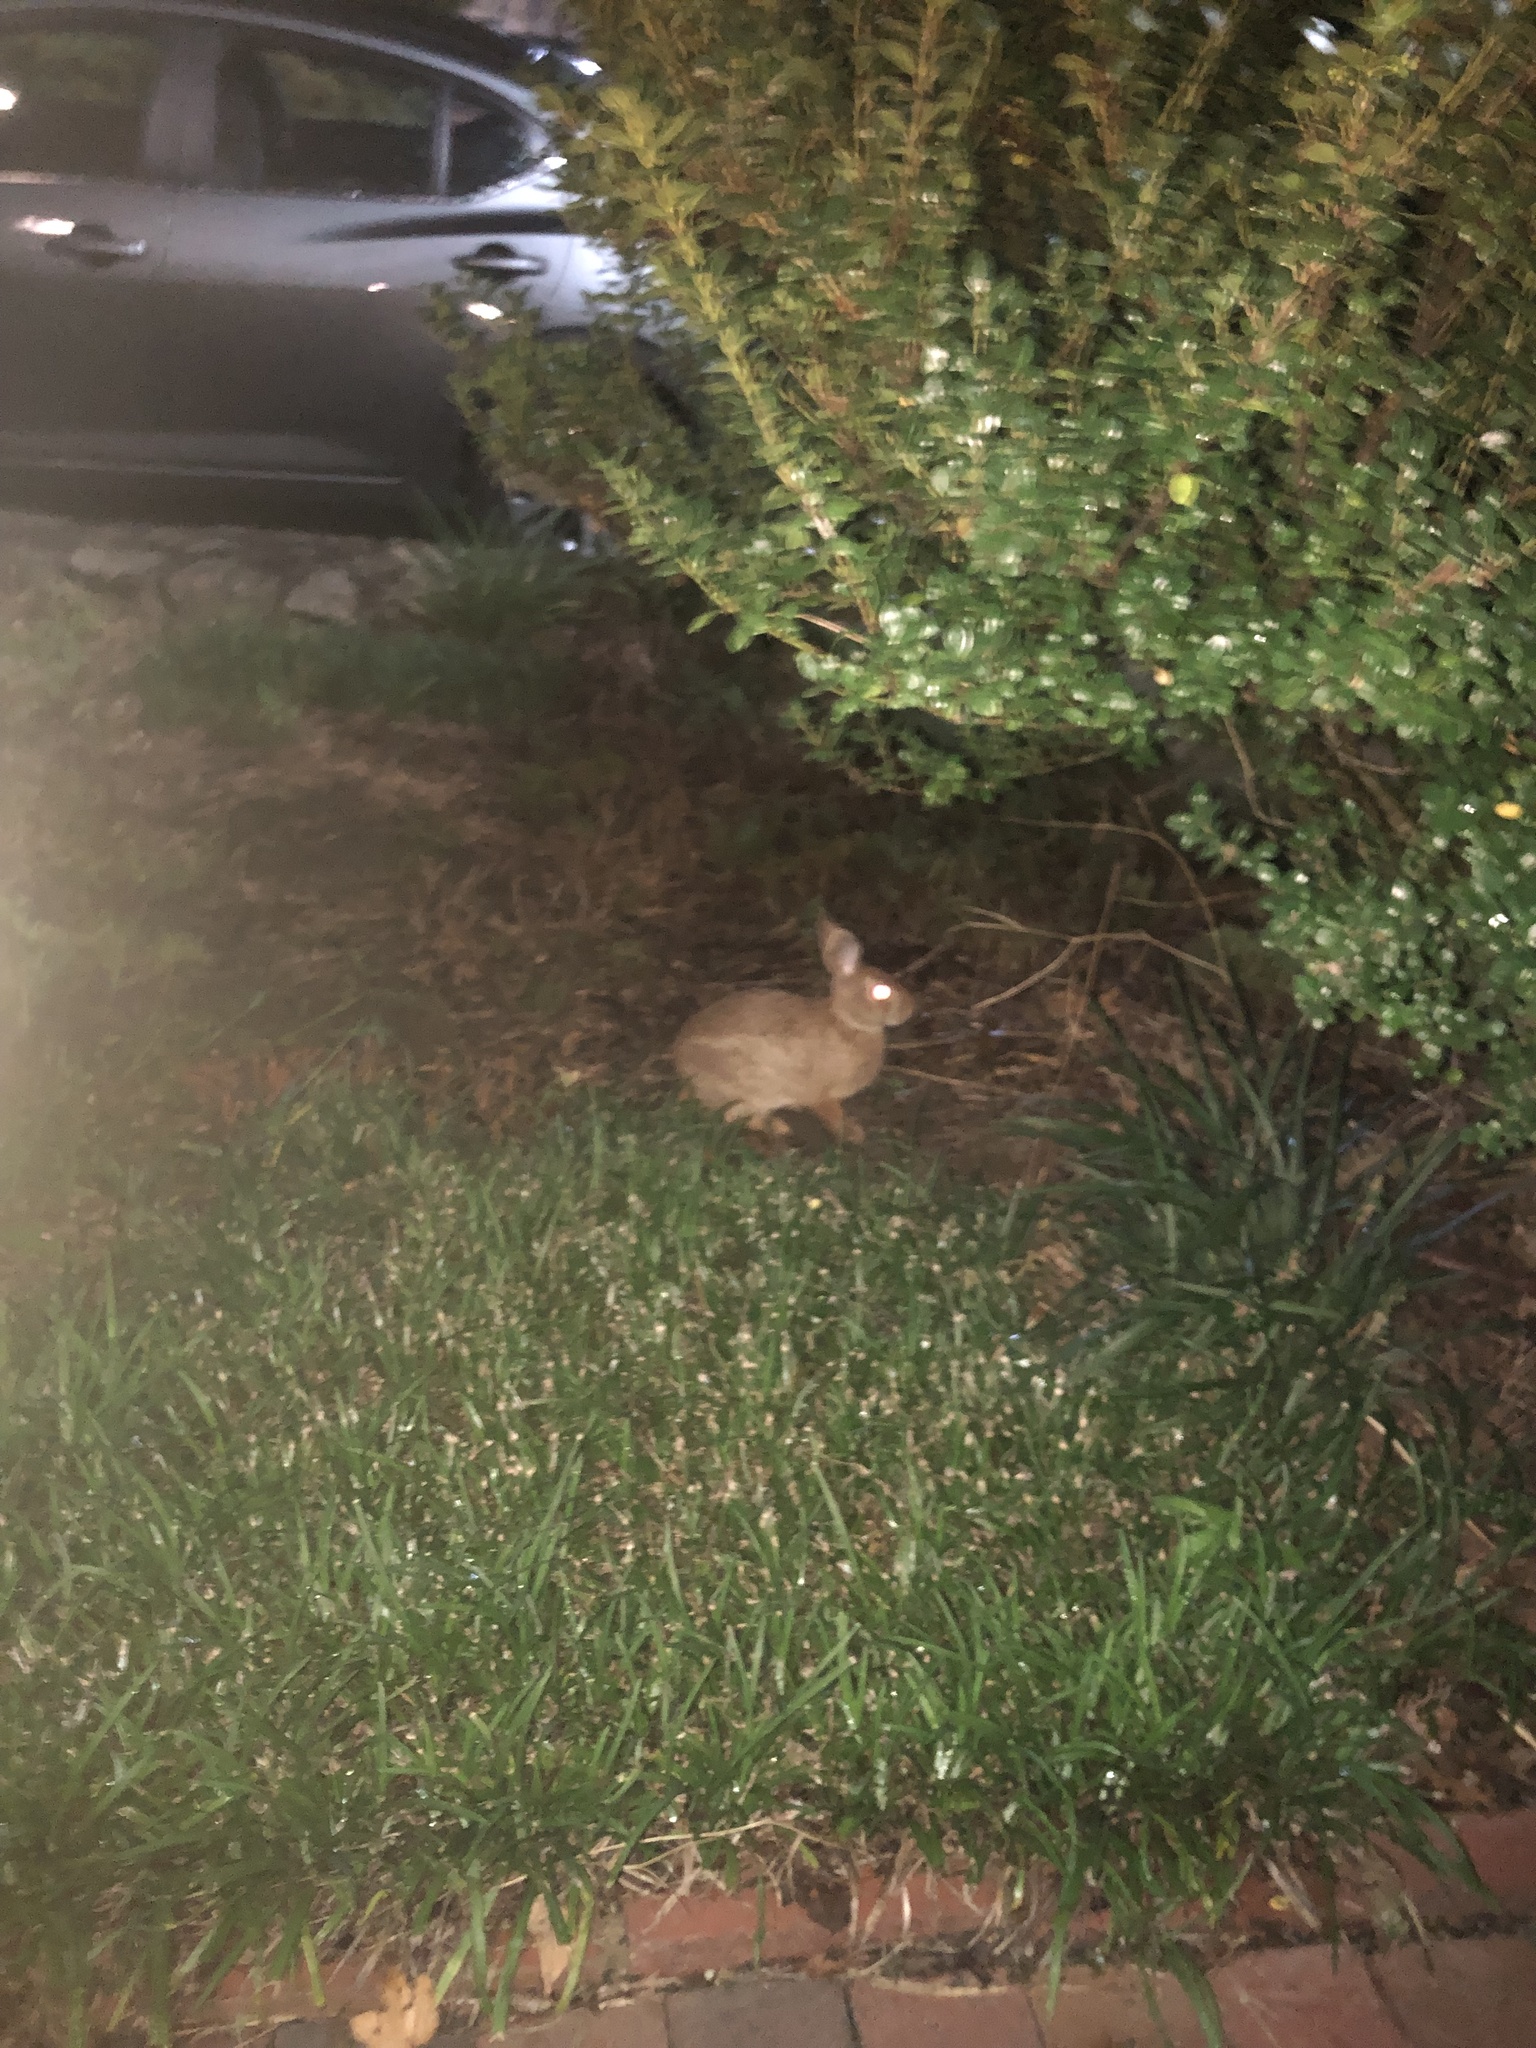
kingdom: Animalia
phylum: Chordata
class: Mammalia
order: Lagomorpha
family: Leporidae
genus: Sylvilagus
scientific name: Sylvilagus floridanus
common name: Eastern cottontail
